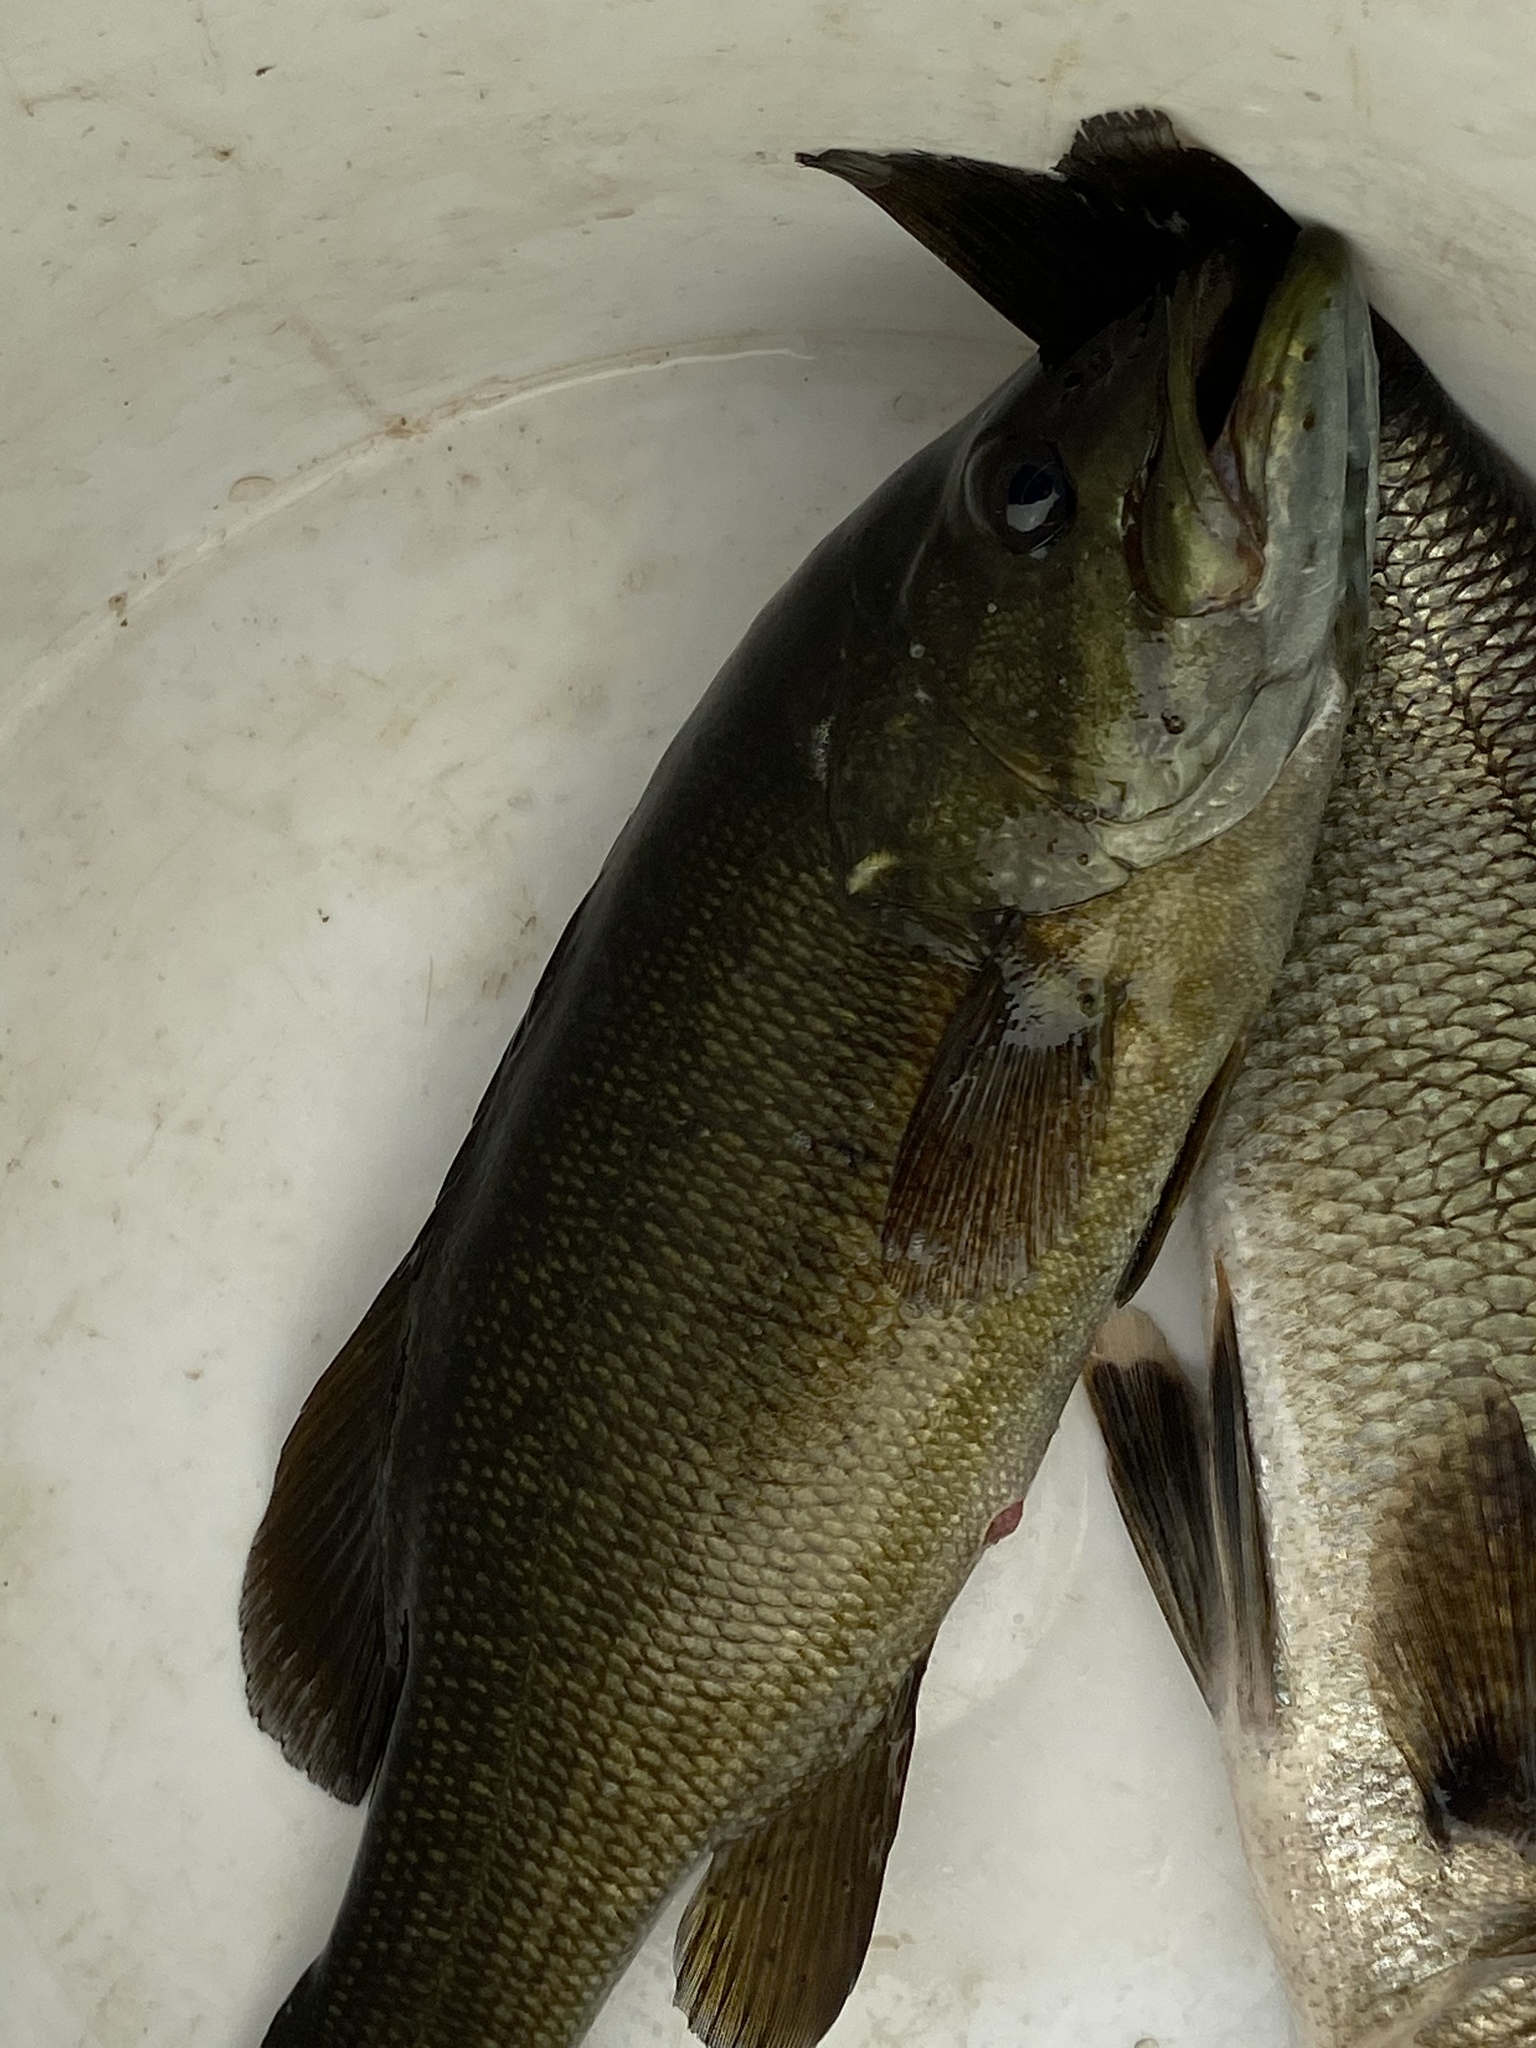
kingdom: Animalia
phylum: Chordata
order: Perciformes
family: Centrarchidae
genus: Micropterus
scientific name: Micropterus dolomieu
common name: Smallmouth bass
